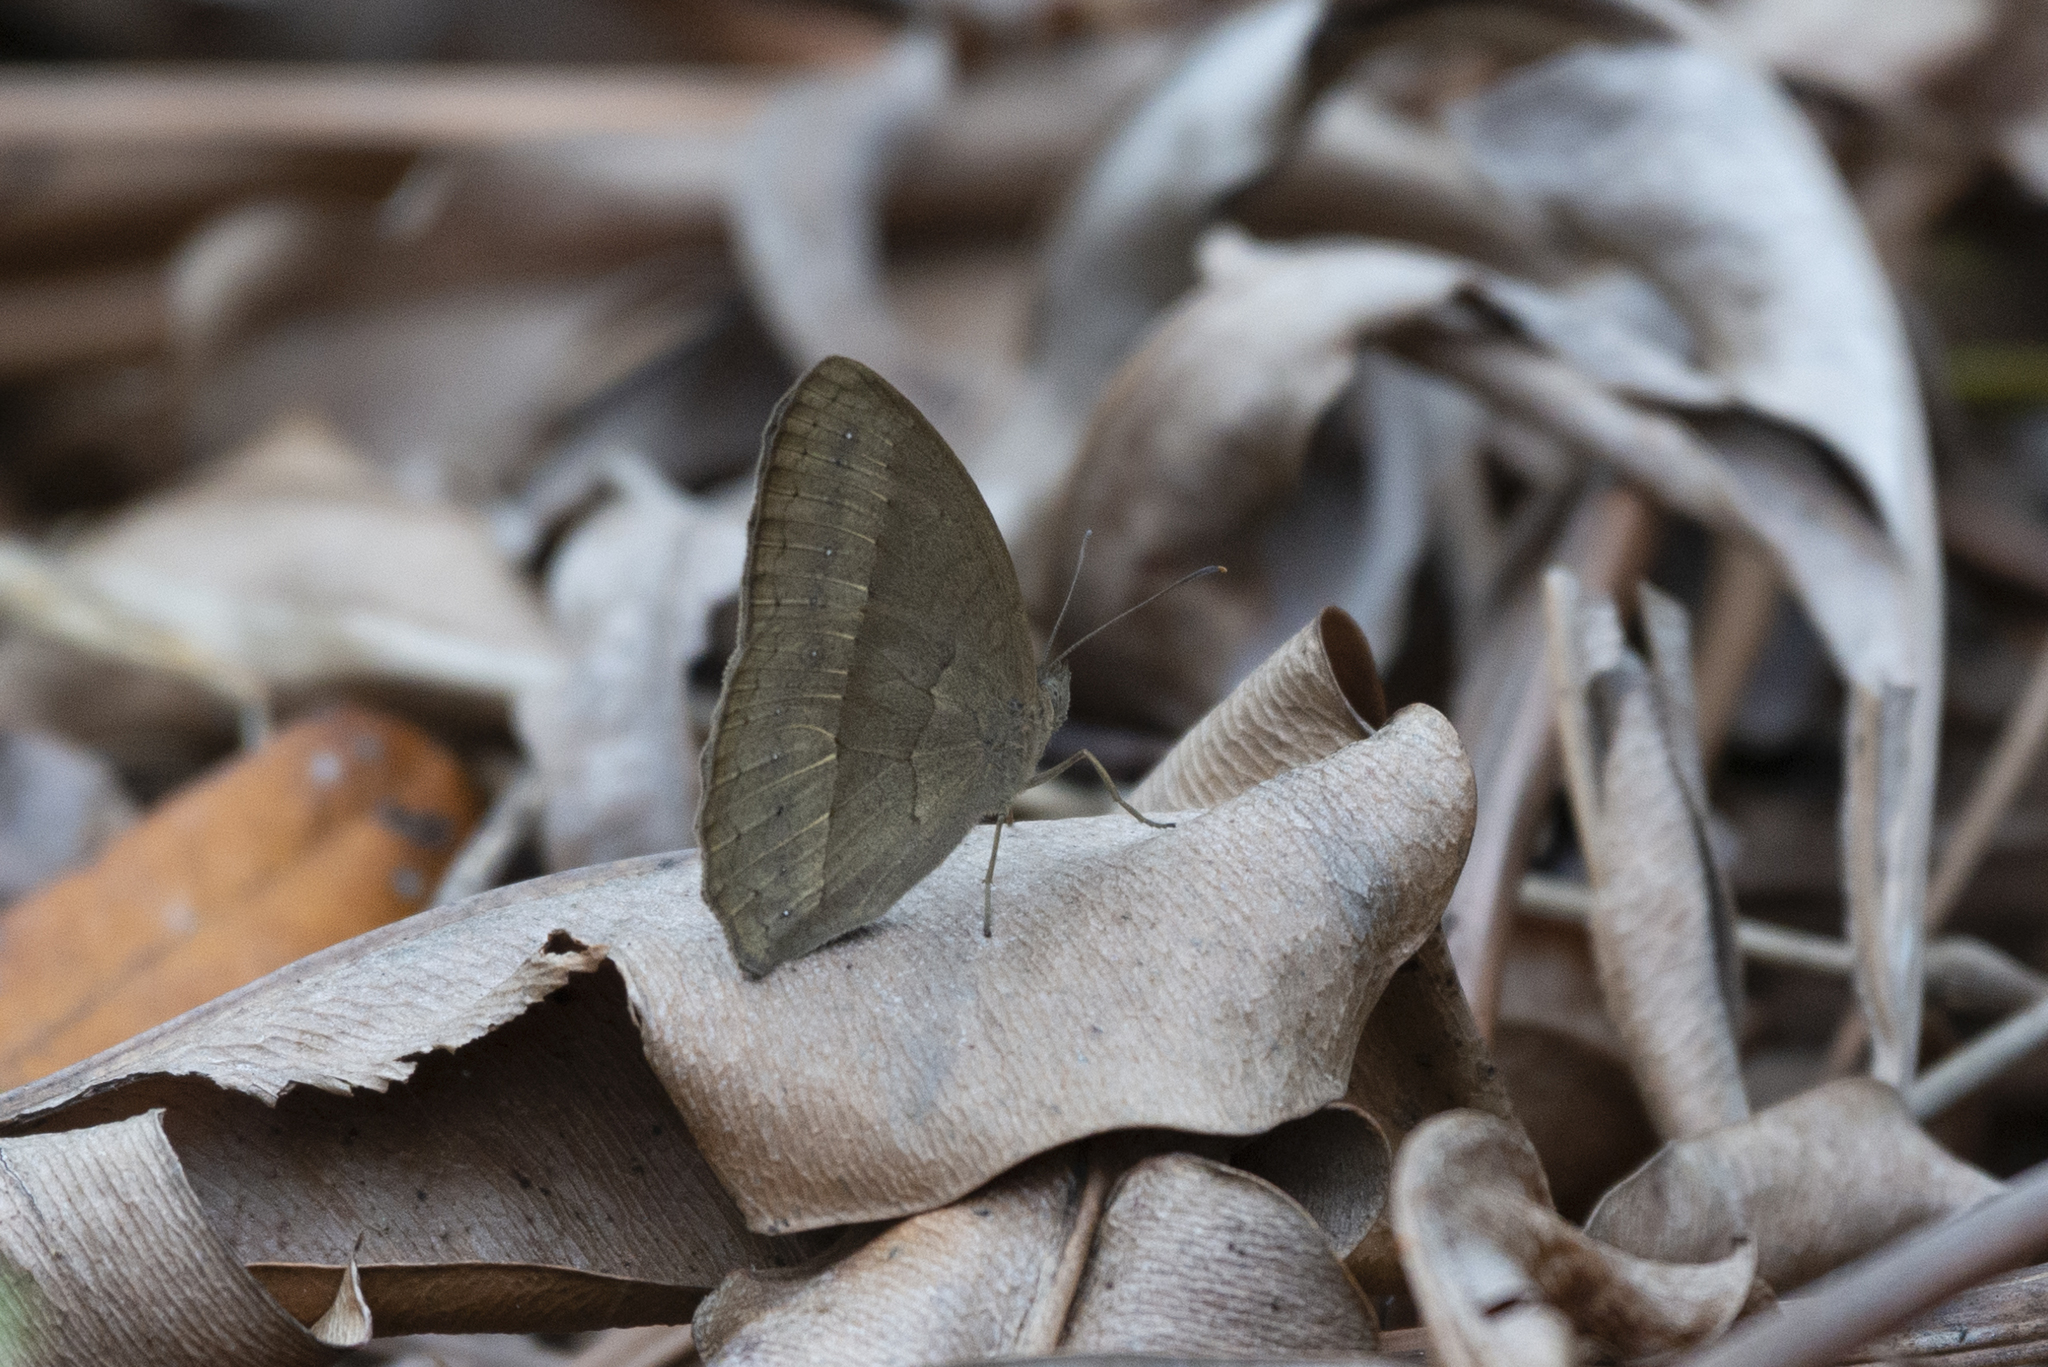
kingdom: Animalia
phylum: Arthropoda
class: Insecta
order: Lepidoptera
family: Nymphalidae
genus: Mycalesis
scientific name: Mycalesis mineus
